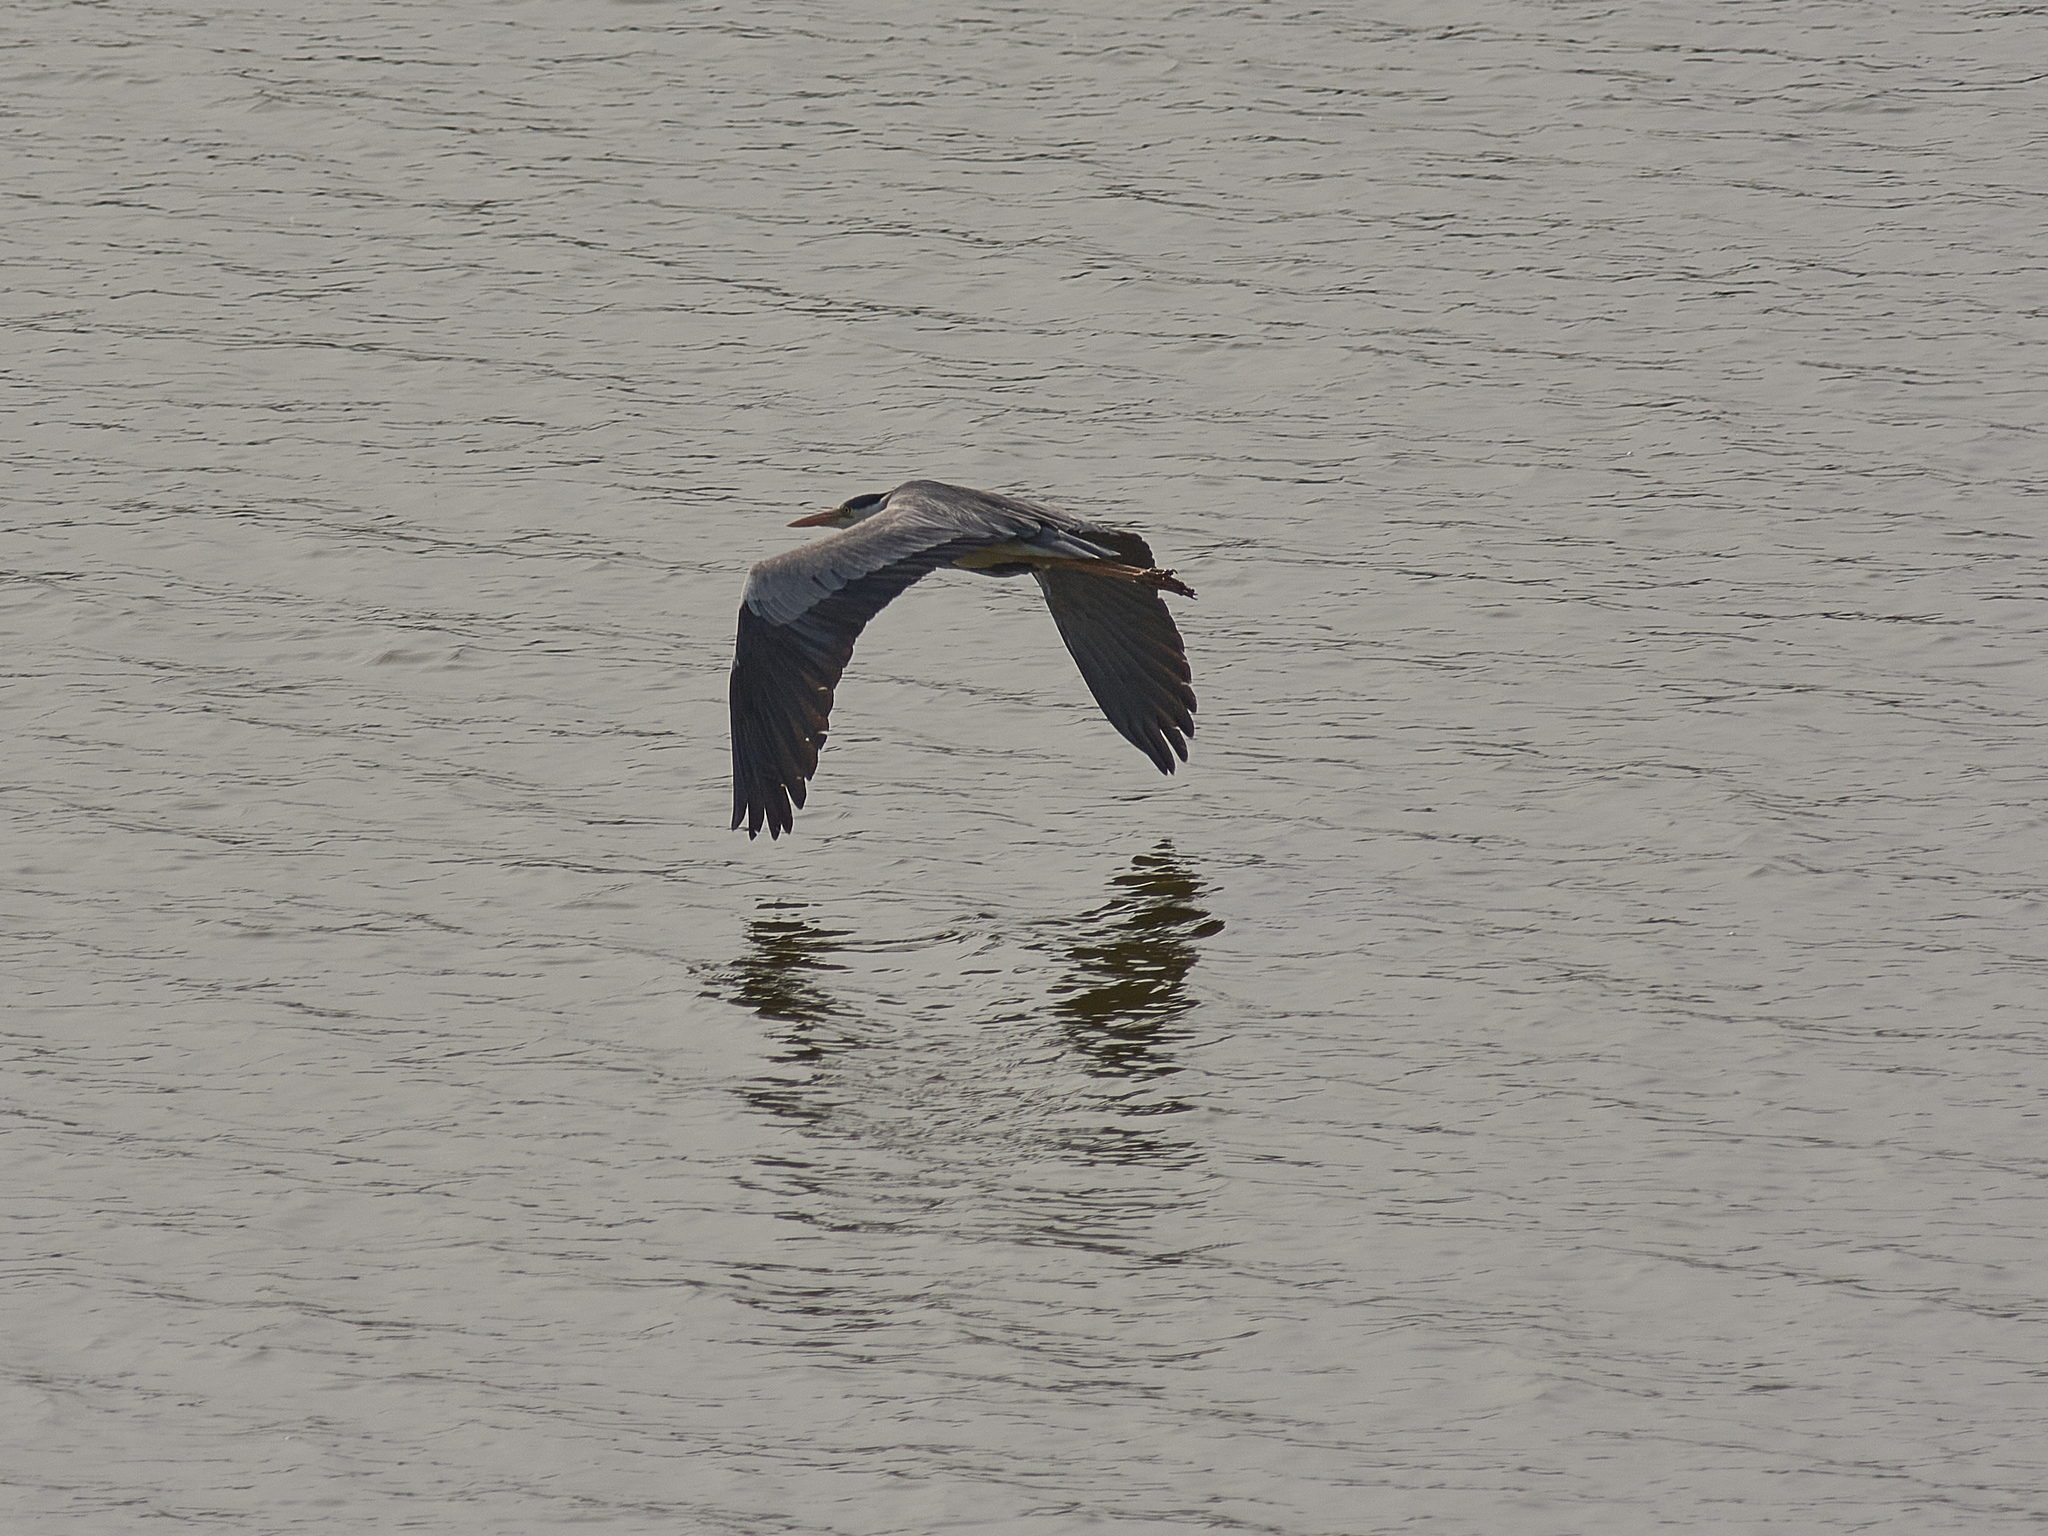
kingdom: Animalia
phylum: Chordata
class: Aves
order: Pelecaniformes
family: Ardeidae
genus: Ardea
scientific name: Ardea cinerea
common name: Grey heron
